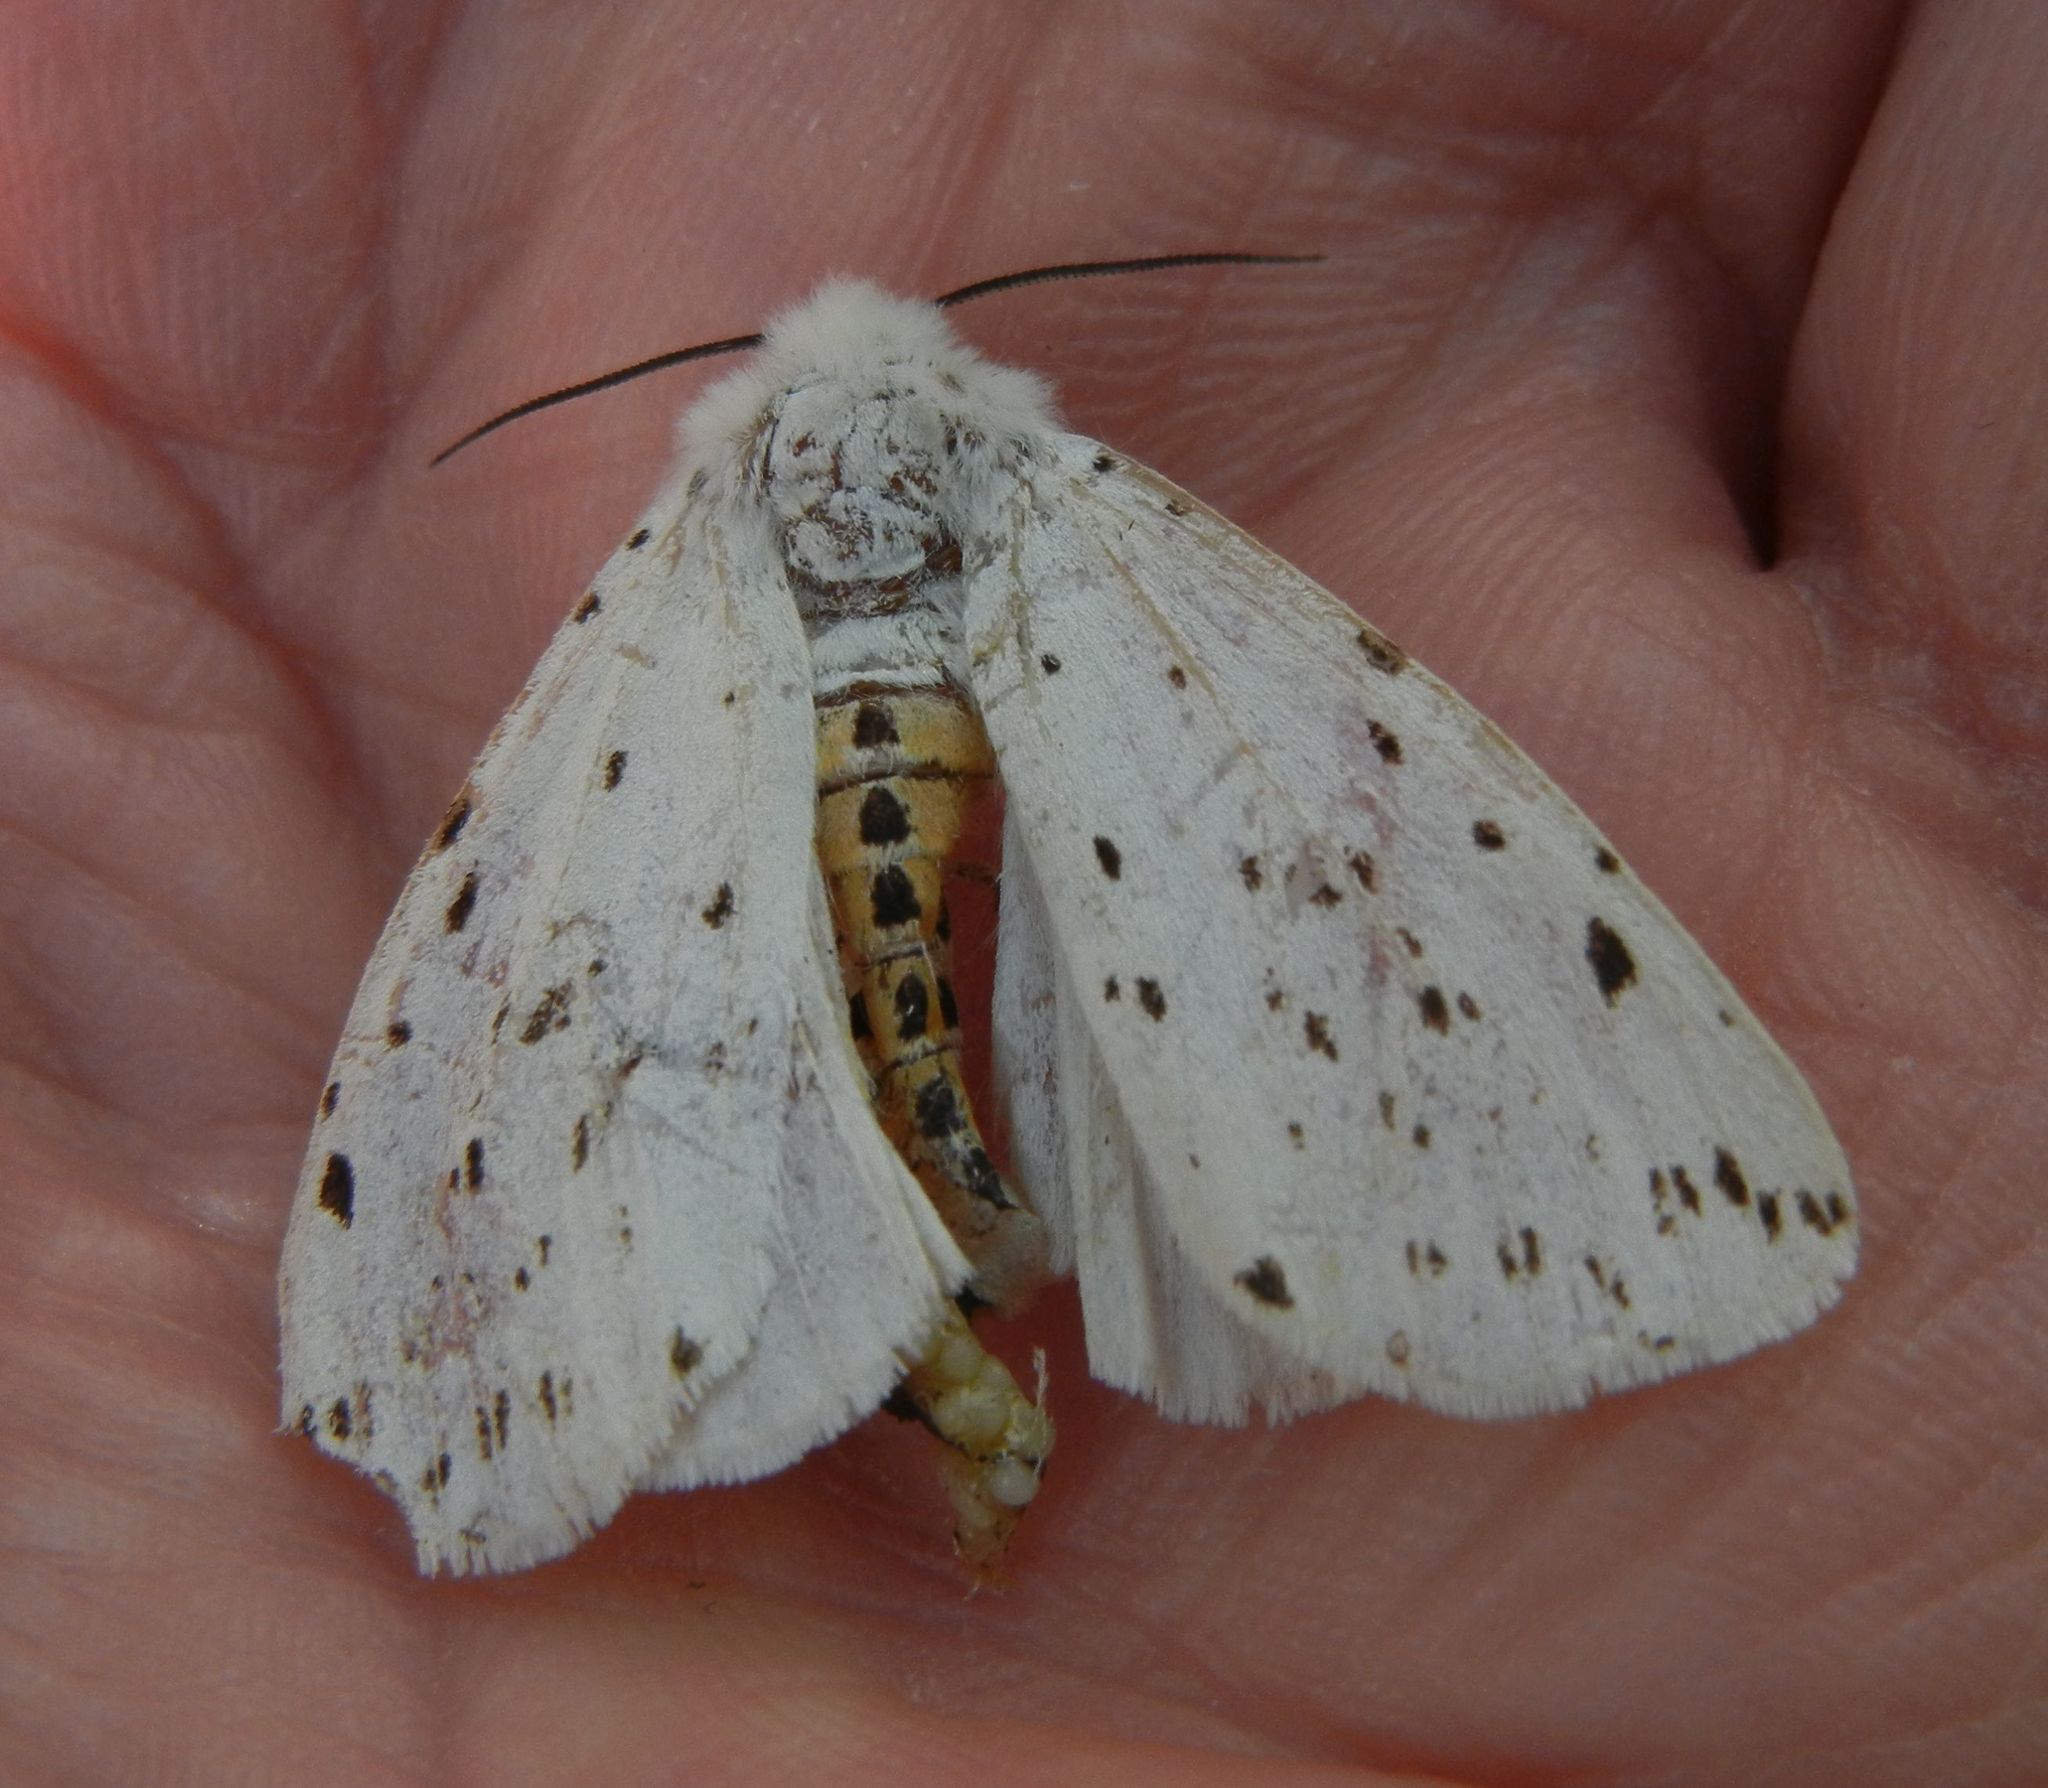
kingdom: Animalia
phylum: Arthropoda
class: Insecta
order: Lepidoptera
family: Erebidae
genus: Spilosoma
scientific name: Spilosoma lubricipeda
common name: White ermine
